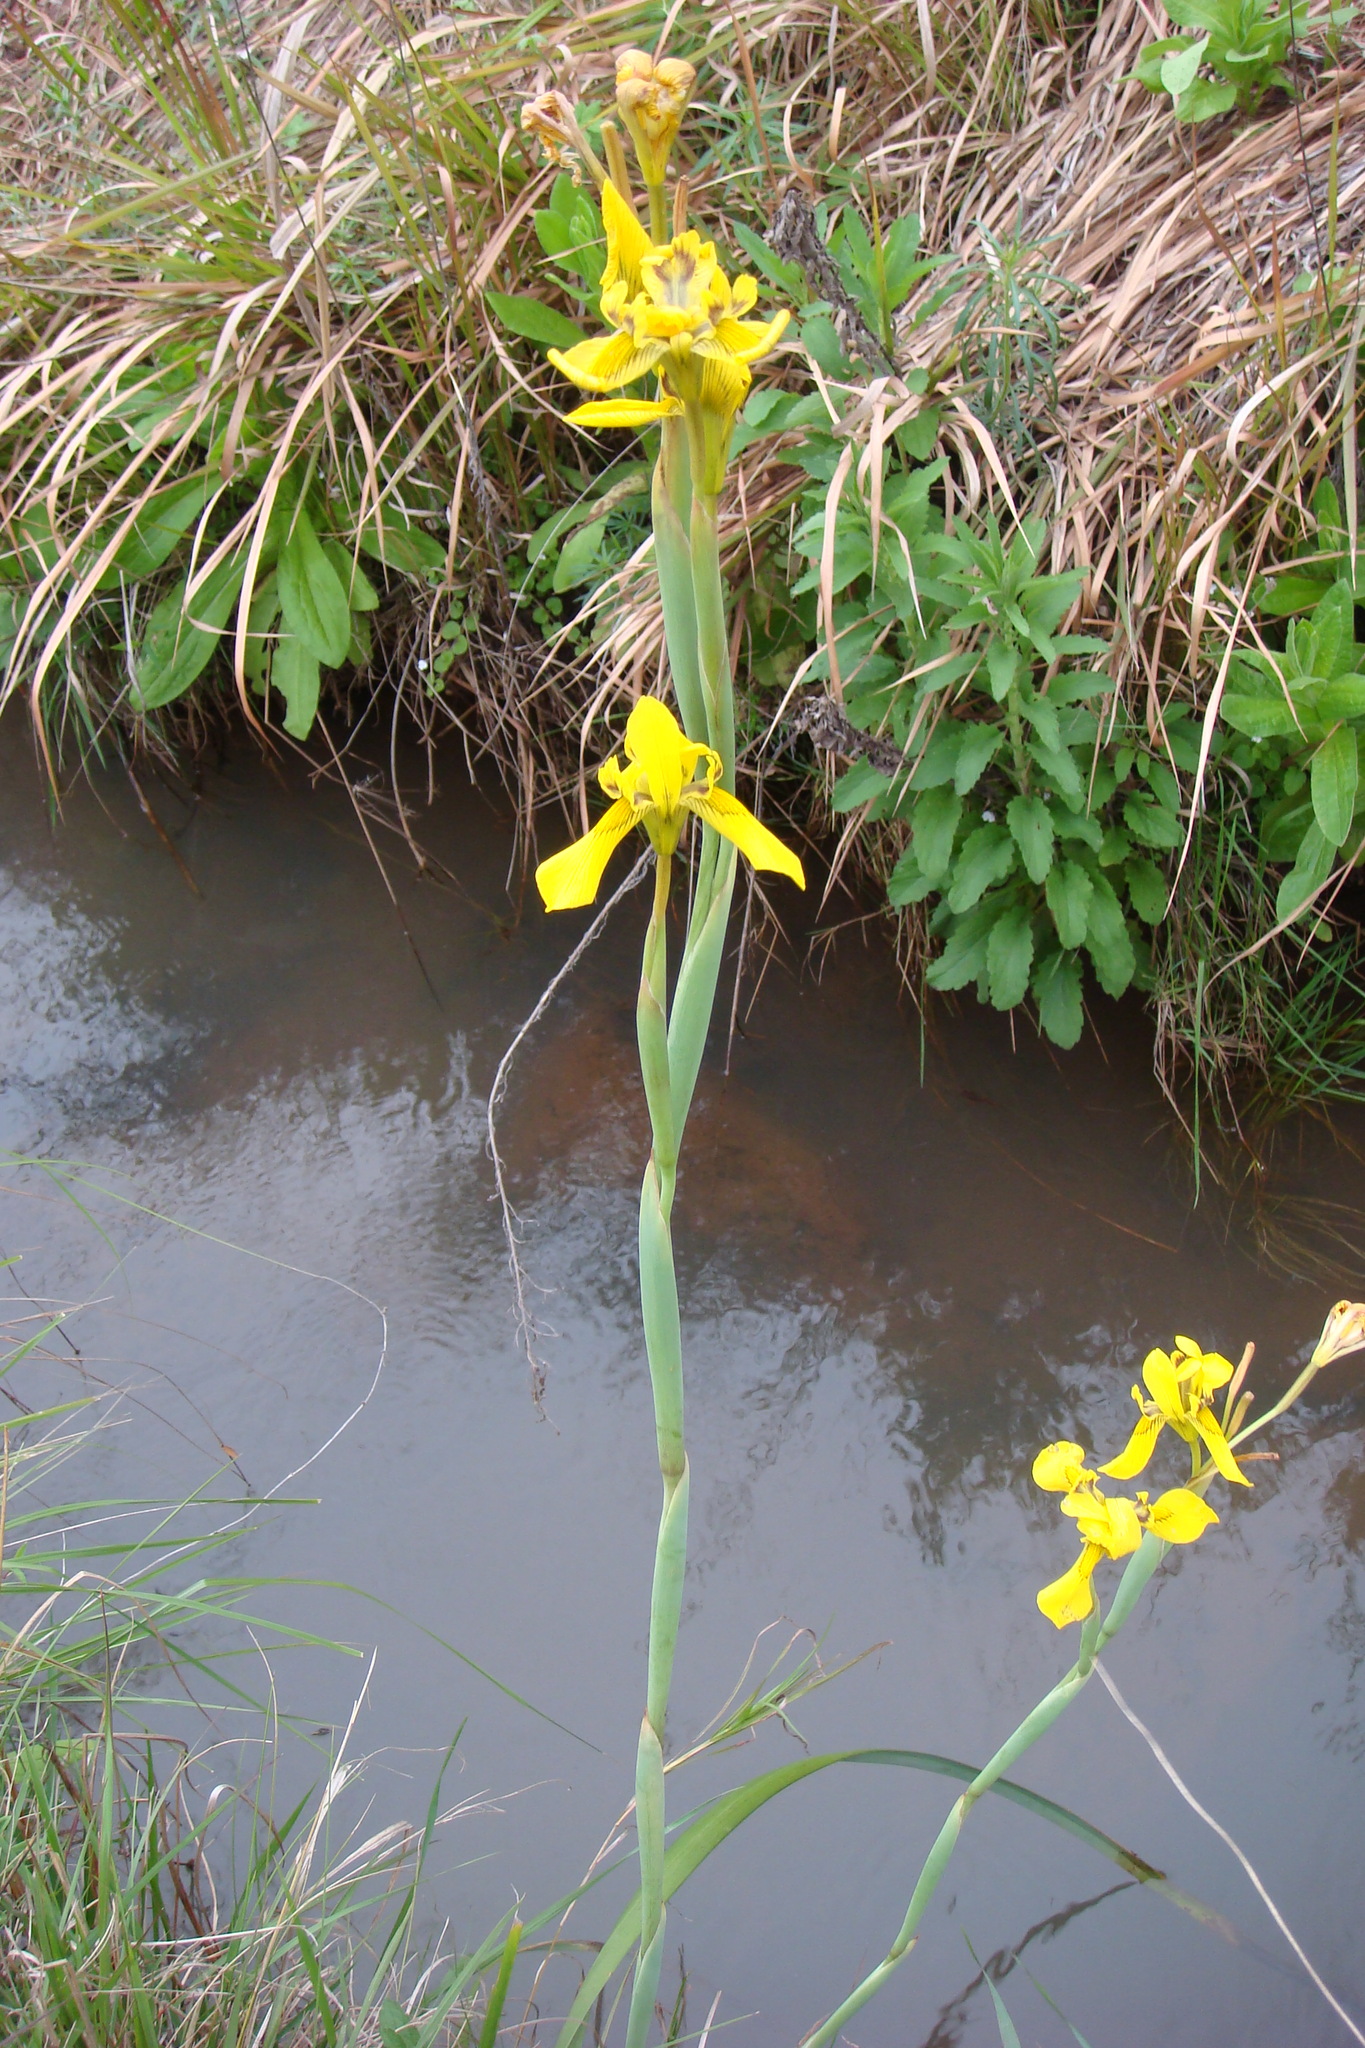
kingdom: Plantae
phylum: Tracheophyta
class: Liliopsida
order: Asparagales
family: Iridaceae
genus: Moraea
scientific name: Moraea huttonii
